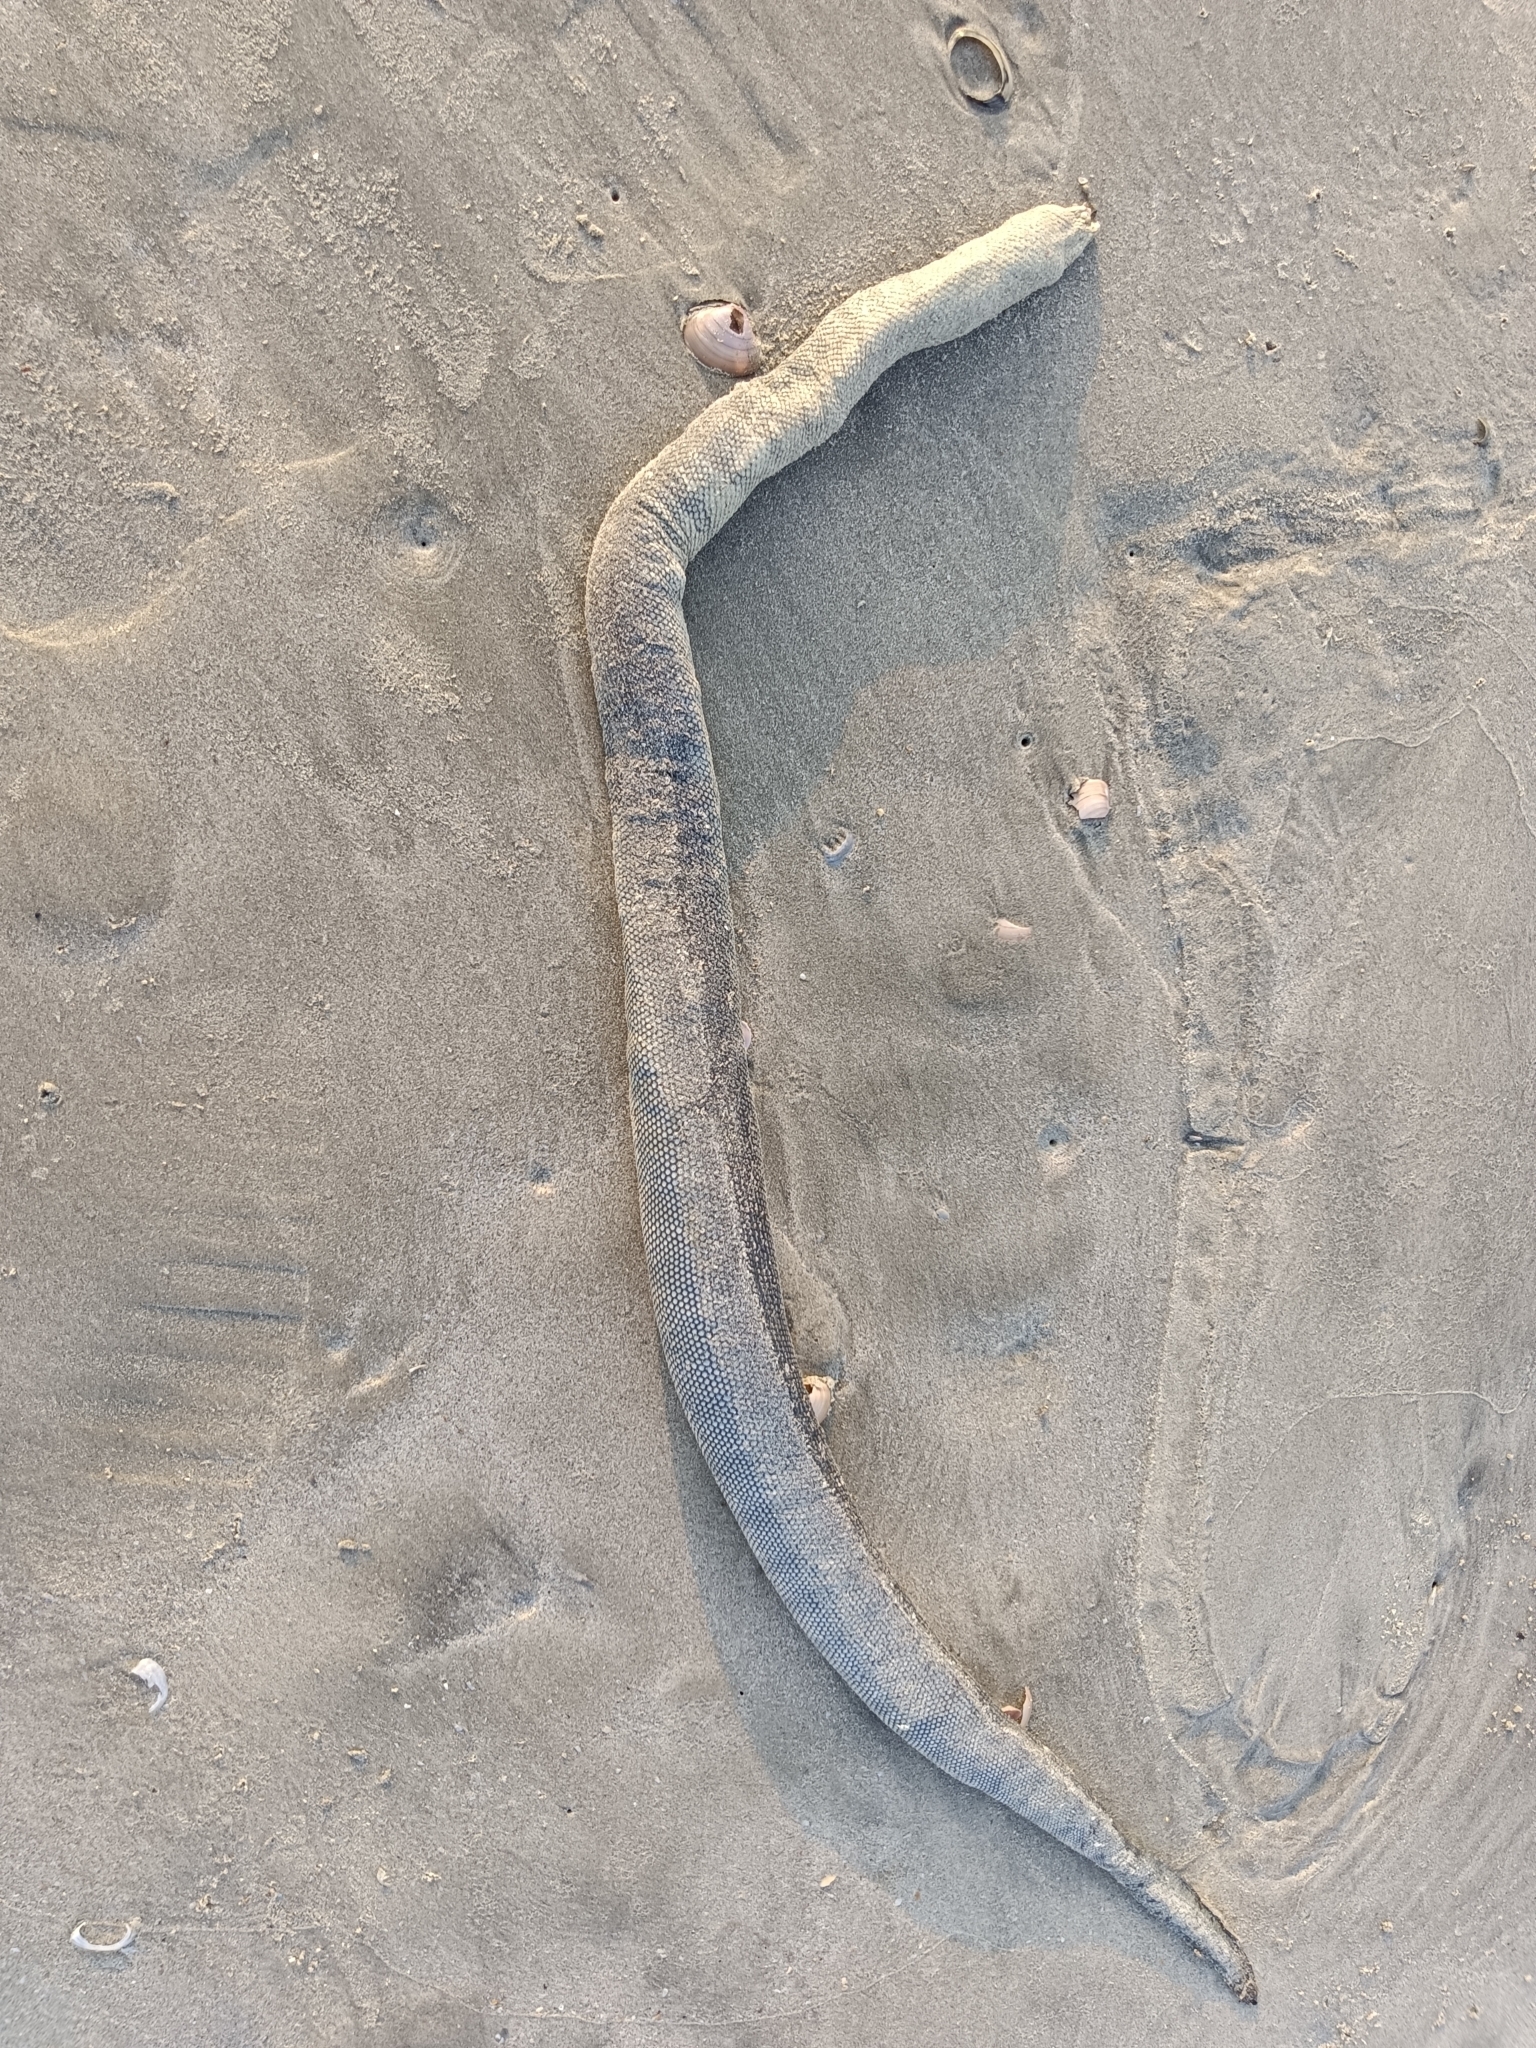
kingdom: Animalia
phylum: Chordata
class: Squamata
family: Elapidae
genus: Hydrophis
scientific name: Hydrophis schistosus
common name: Hook-nosed sea snake
